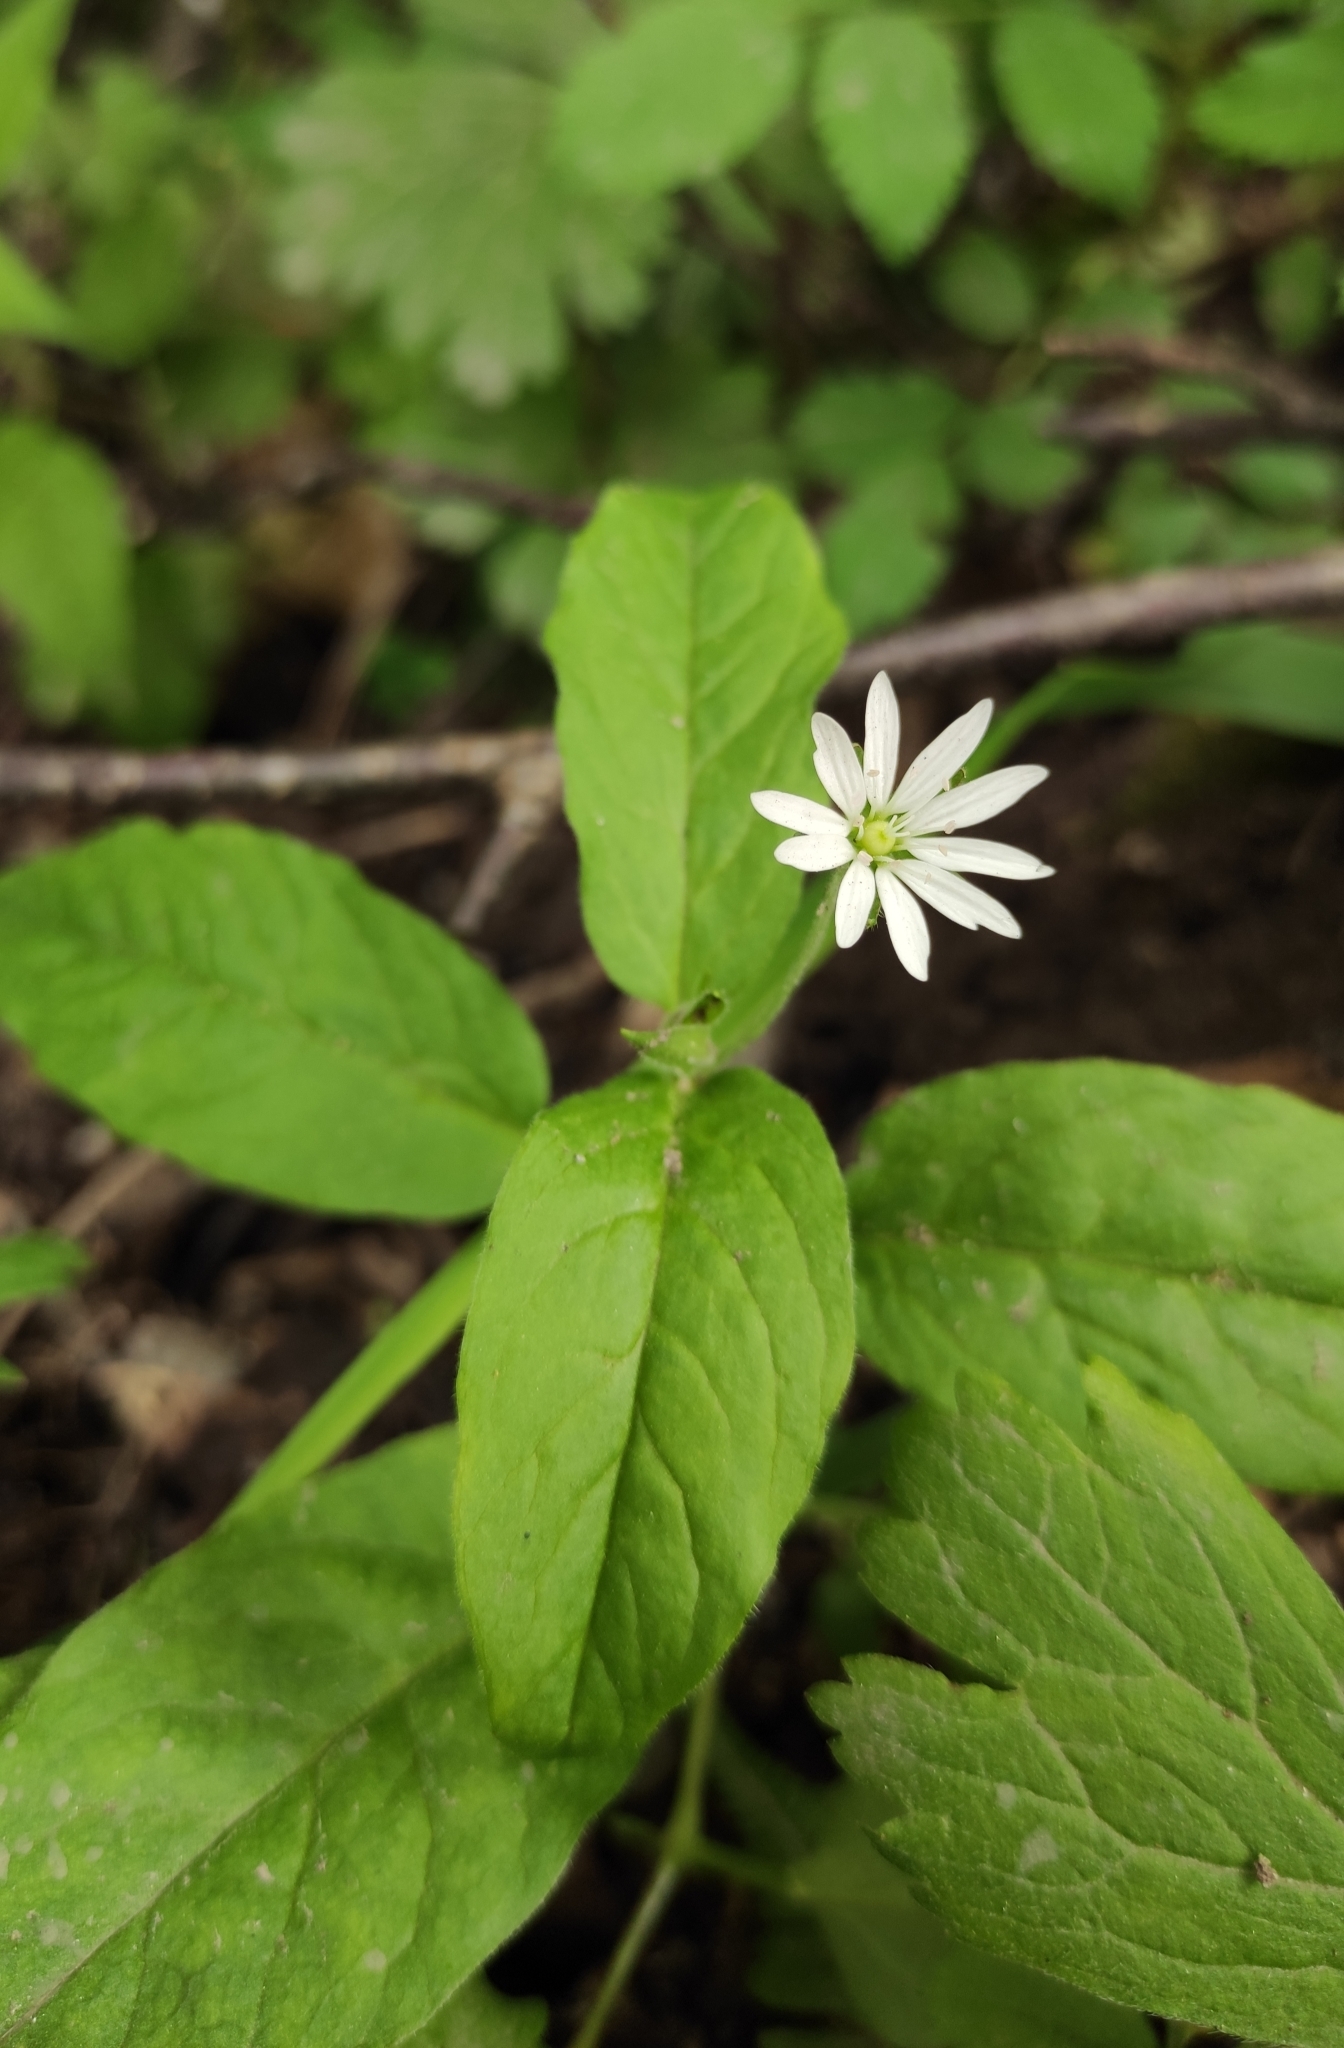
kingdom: Plantae
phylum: Tracheophyta
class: Magnoliopsida
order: Caryophyllales
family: Caryophyllaceae
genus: Stellaria
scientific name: Stellaria bungeana
